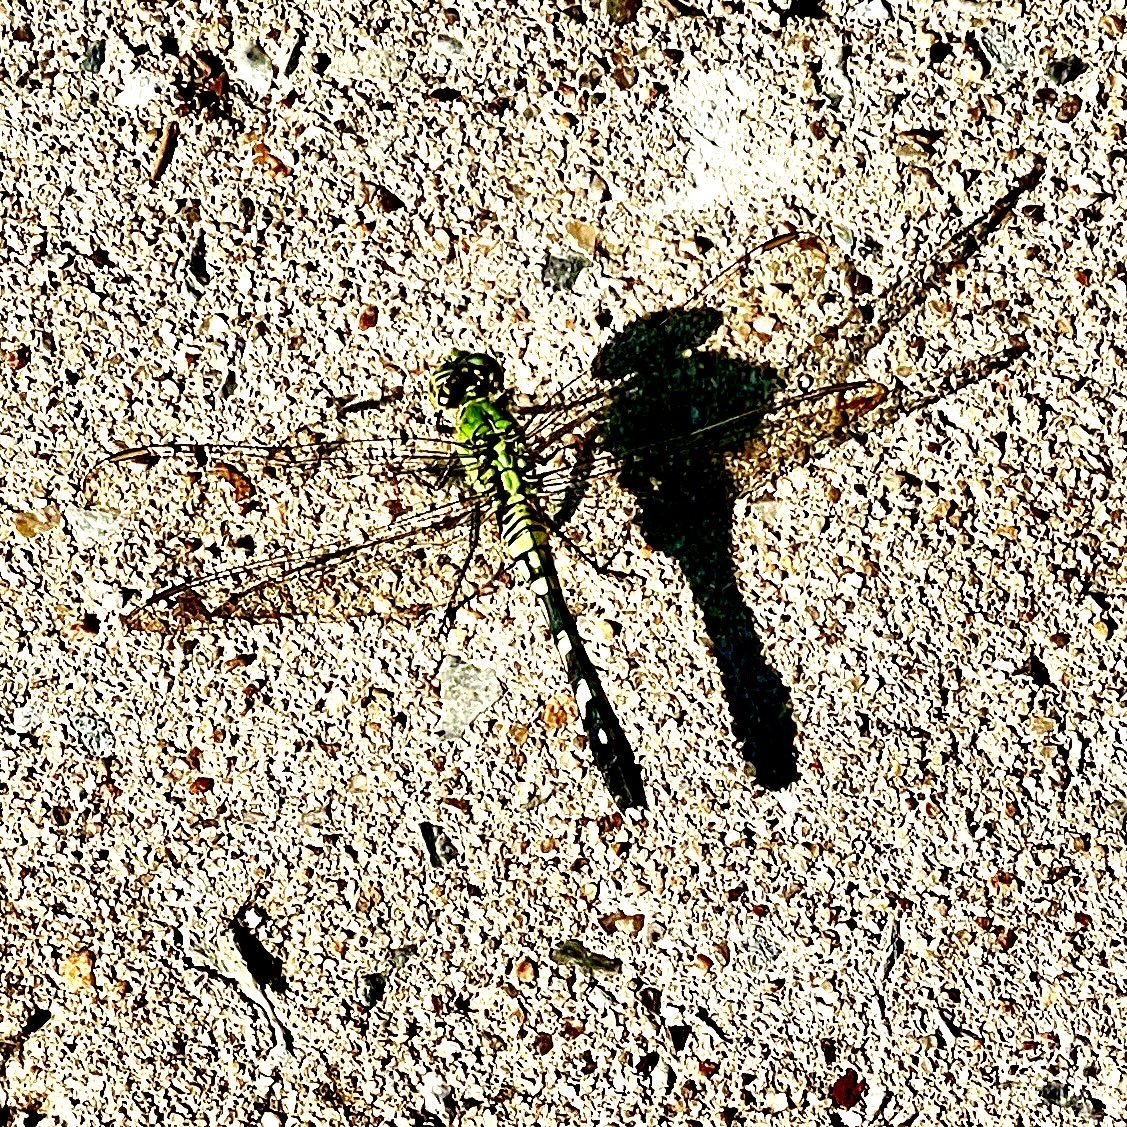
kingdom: Animalia
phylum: Arthropoda
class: Insecta
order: Odonata
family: Libellulidae
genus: Erythemis
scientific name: Erythemis simplicicollis
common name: Eastern pondhawk
